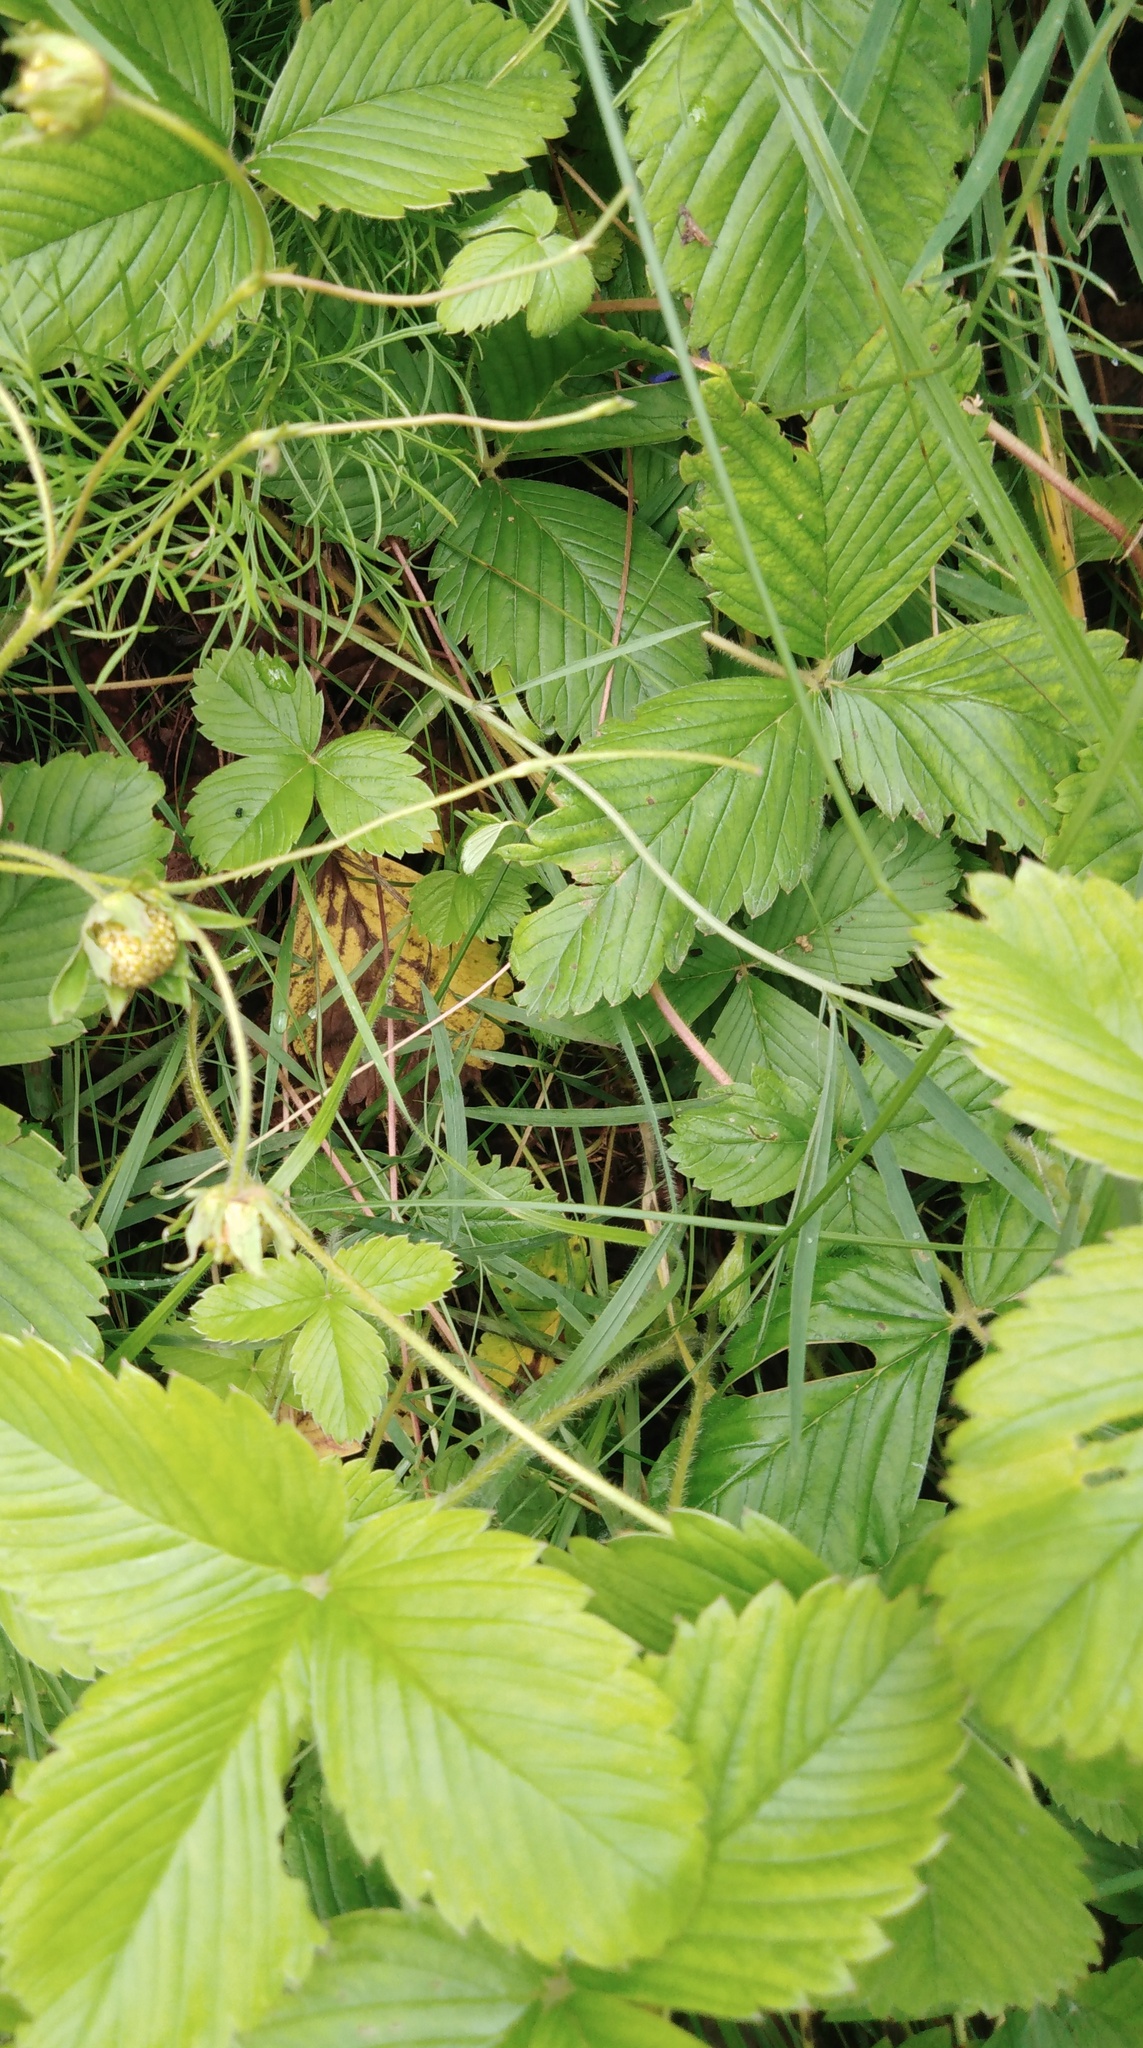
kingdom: Plantae
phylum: Tracheophyta
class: Magnoliopsida
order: Rosales
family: Rosaceae
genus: Fragaria
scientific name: Fragaria viridis
